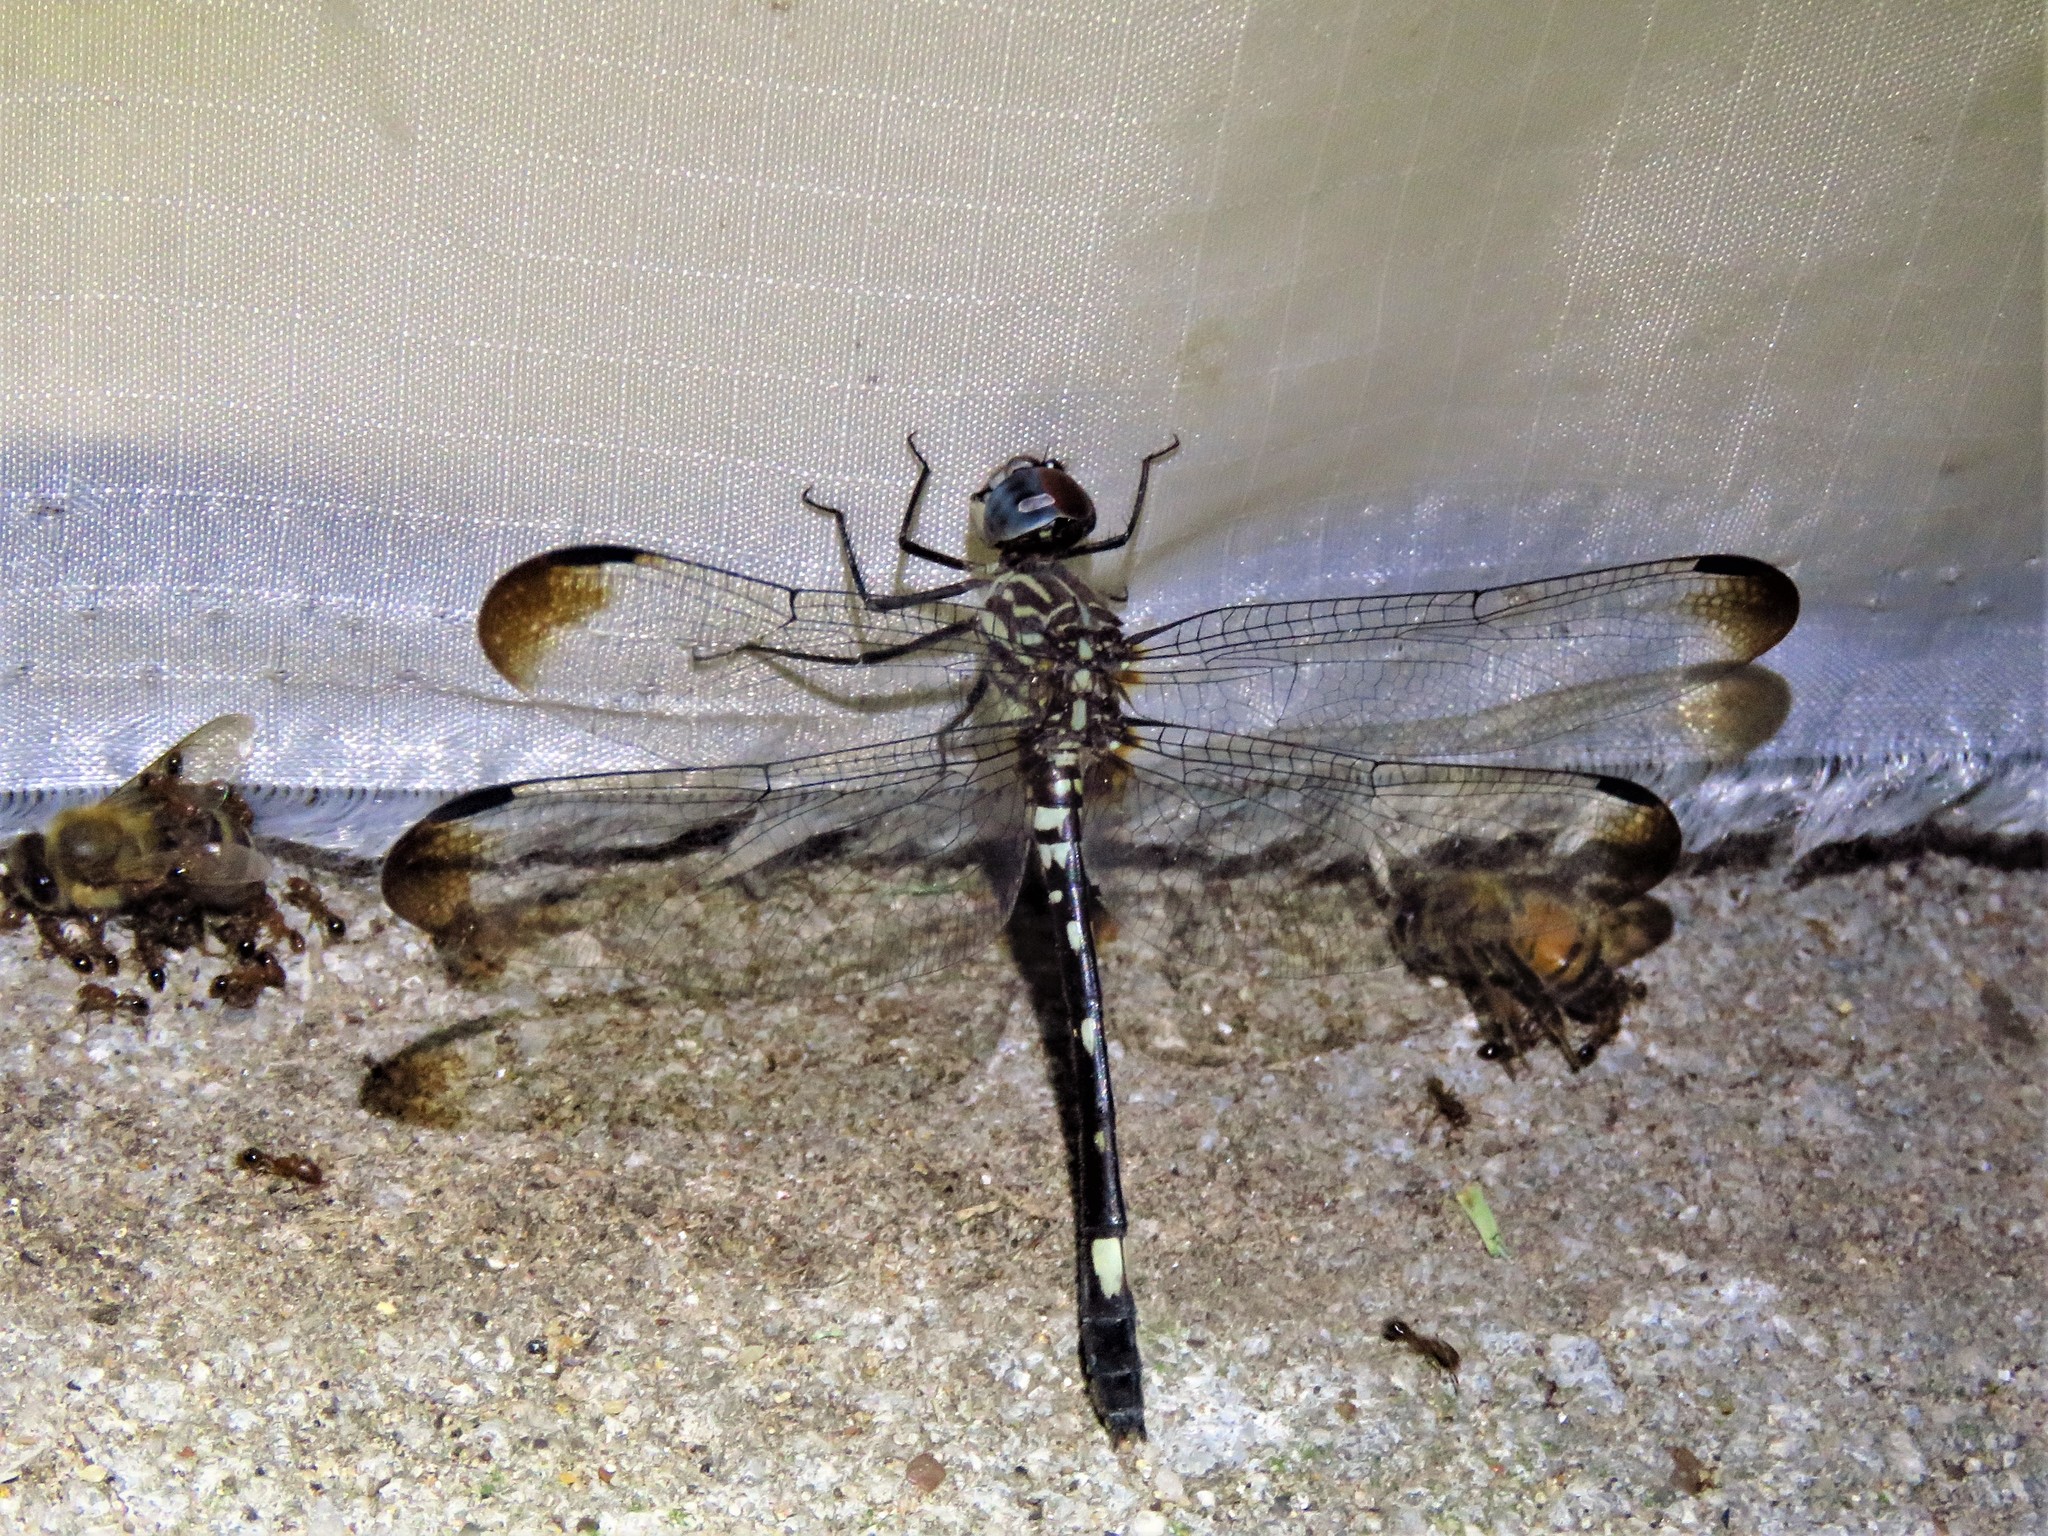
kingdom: Animalia
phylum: Arthropoda
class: Insecta
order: Odonata
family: Libellulidae
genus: Dythemis
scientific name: Dythemis velox
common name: Swift setwing
